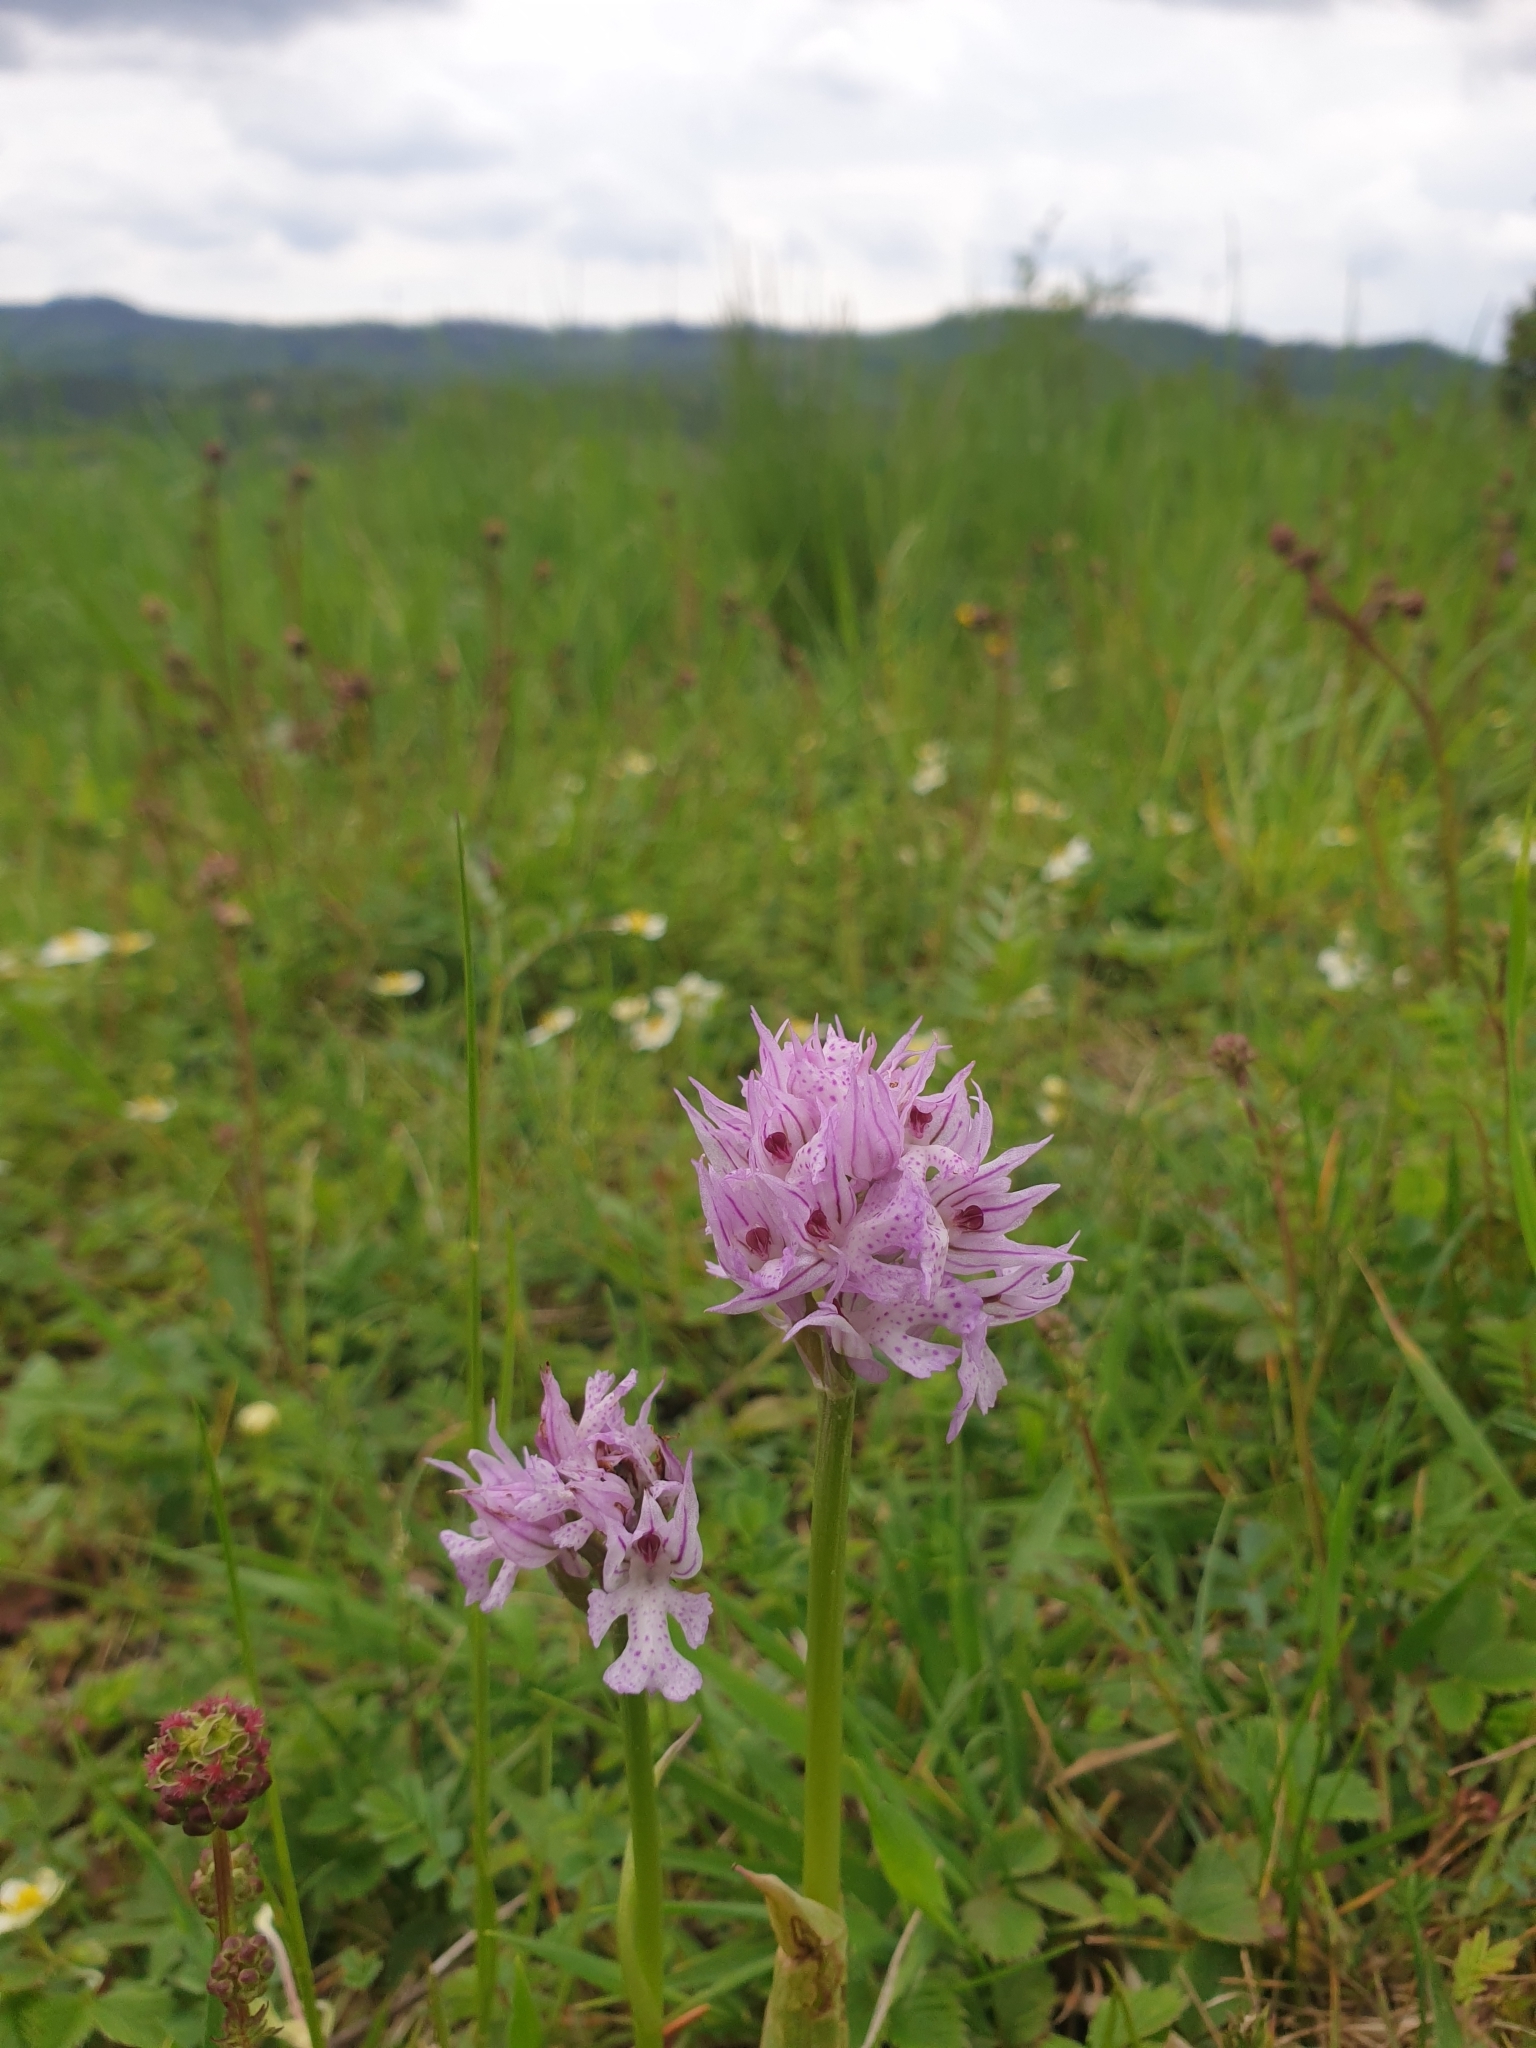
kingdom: Plantae
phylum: Tracheophyta
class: Liliopsida
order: Asparagales
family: Orchidaceae
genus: Neotinea
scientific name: Neotinea tridentata
